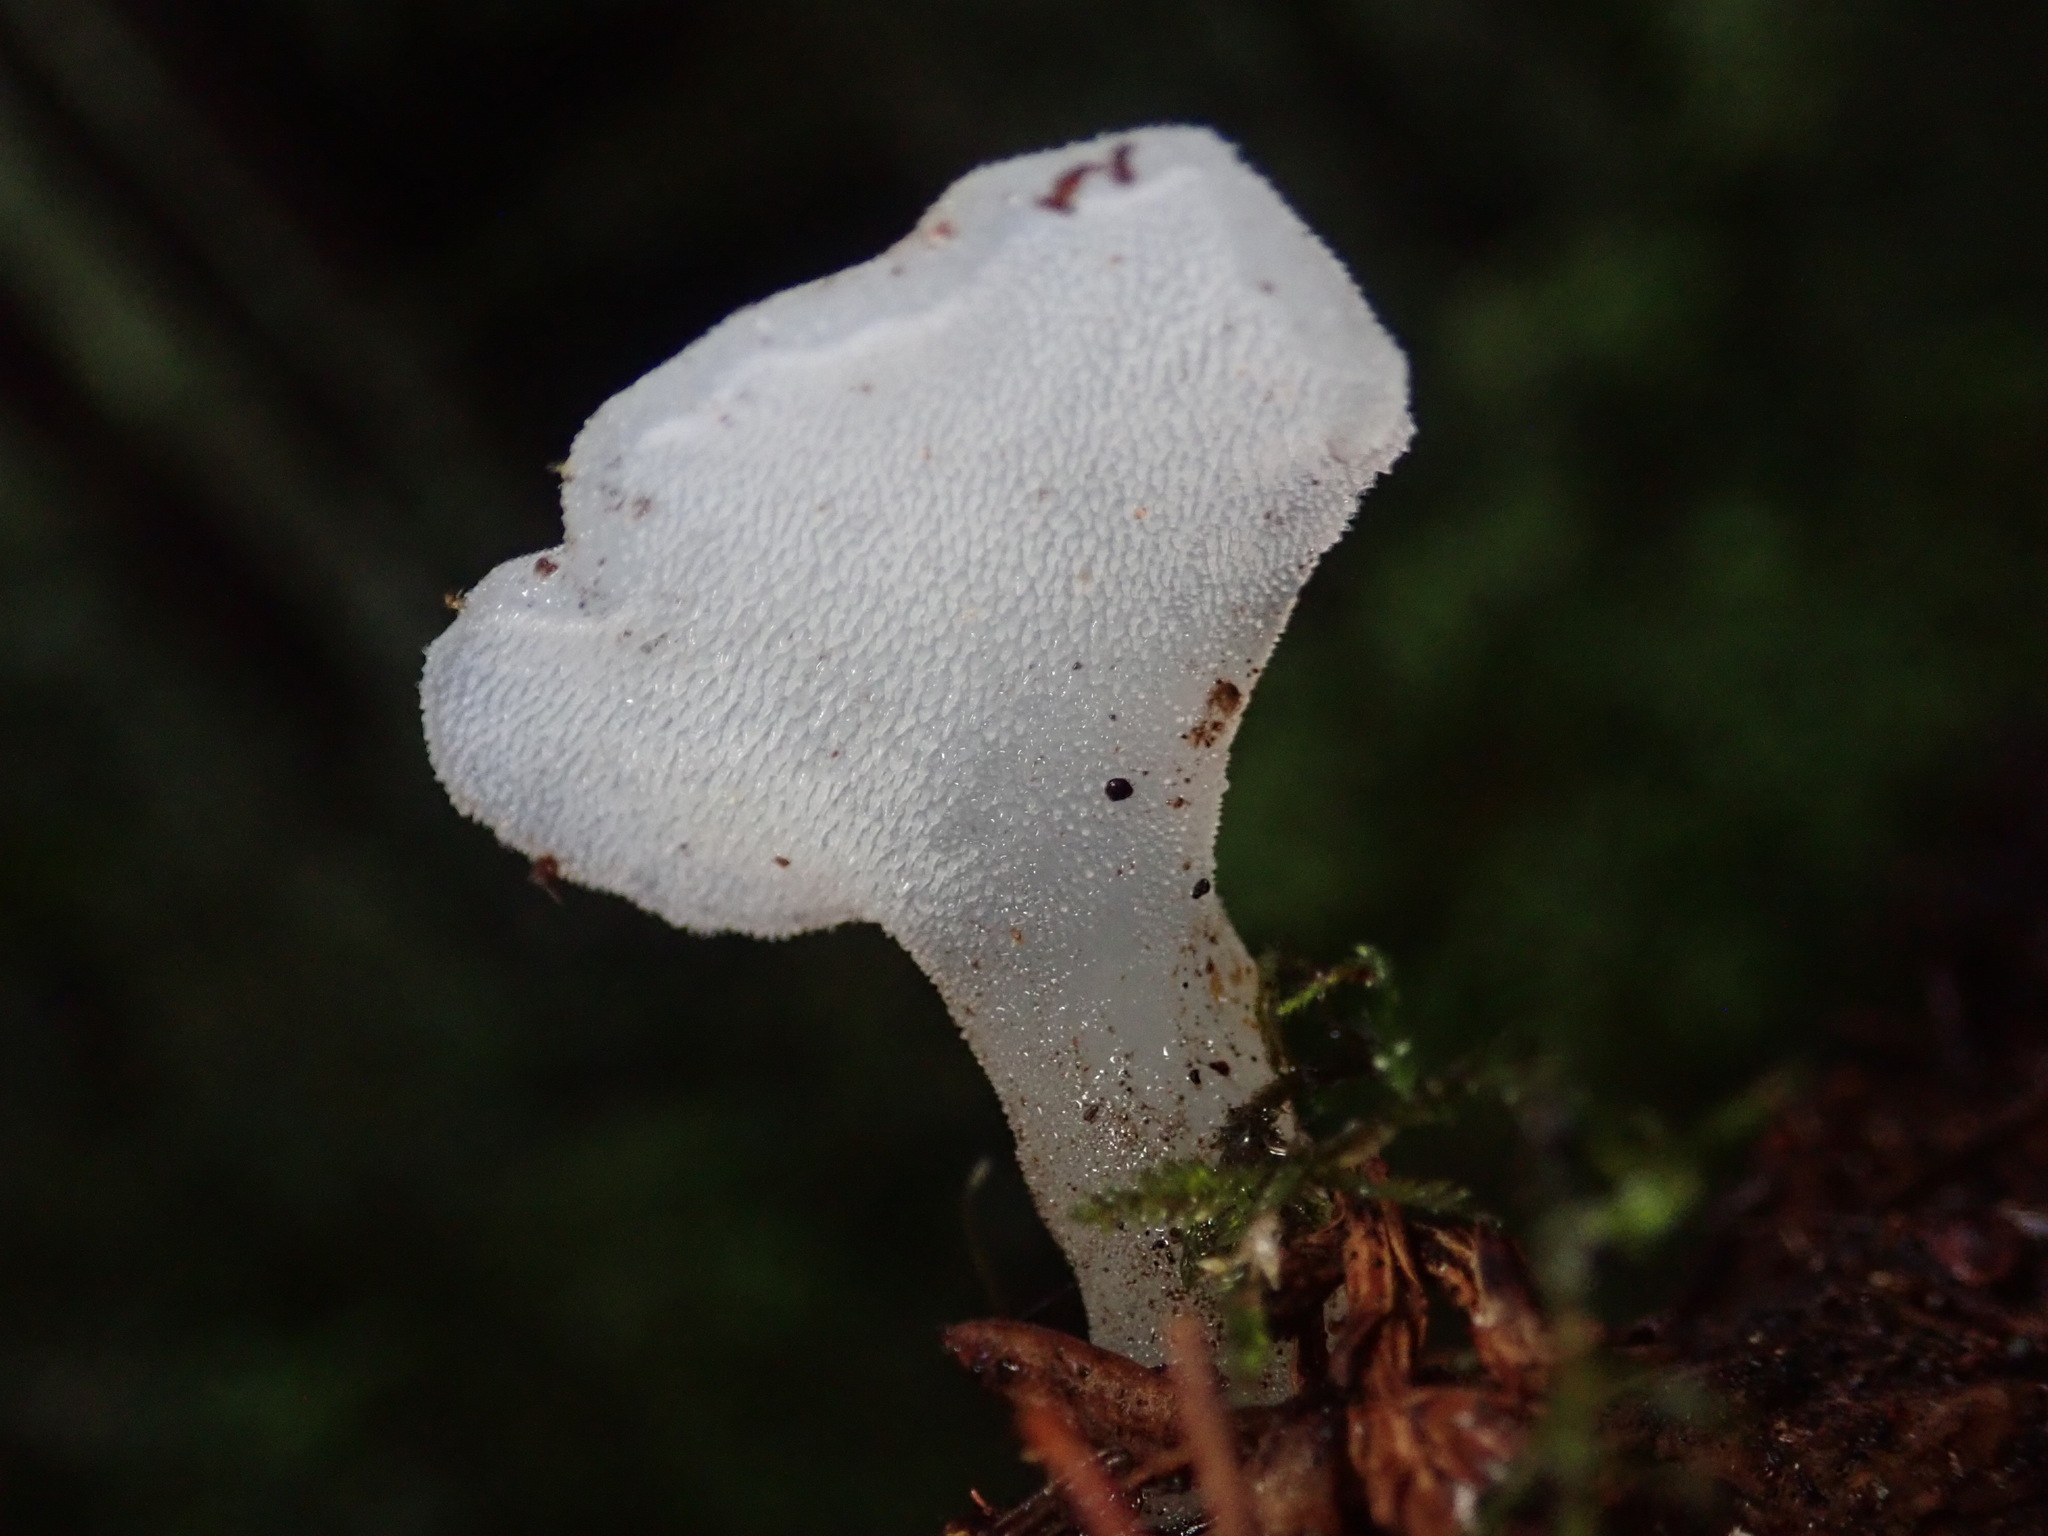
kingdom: Fungi
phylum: Basidiomycota
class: Agaricomycetes
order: Auriculariales
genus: Pseudohydnum
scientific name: Pseudohydnum gelatinosum
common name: Jelly tongue
